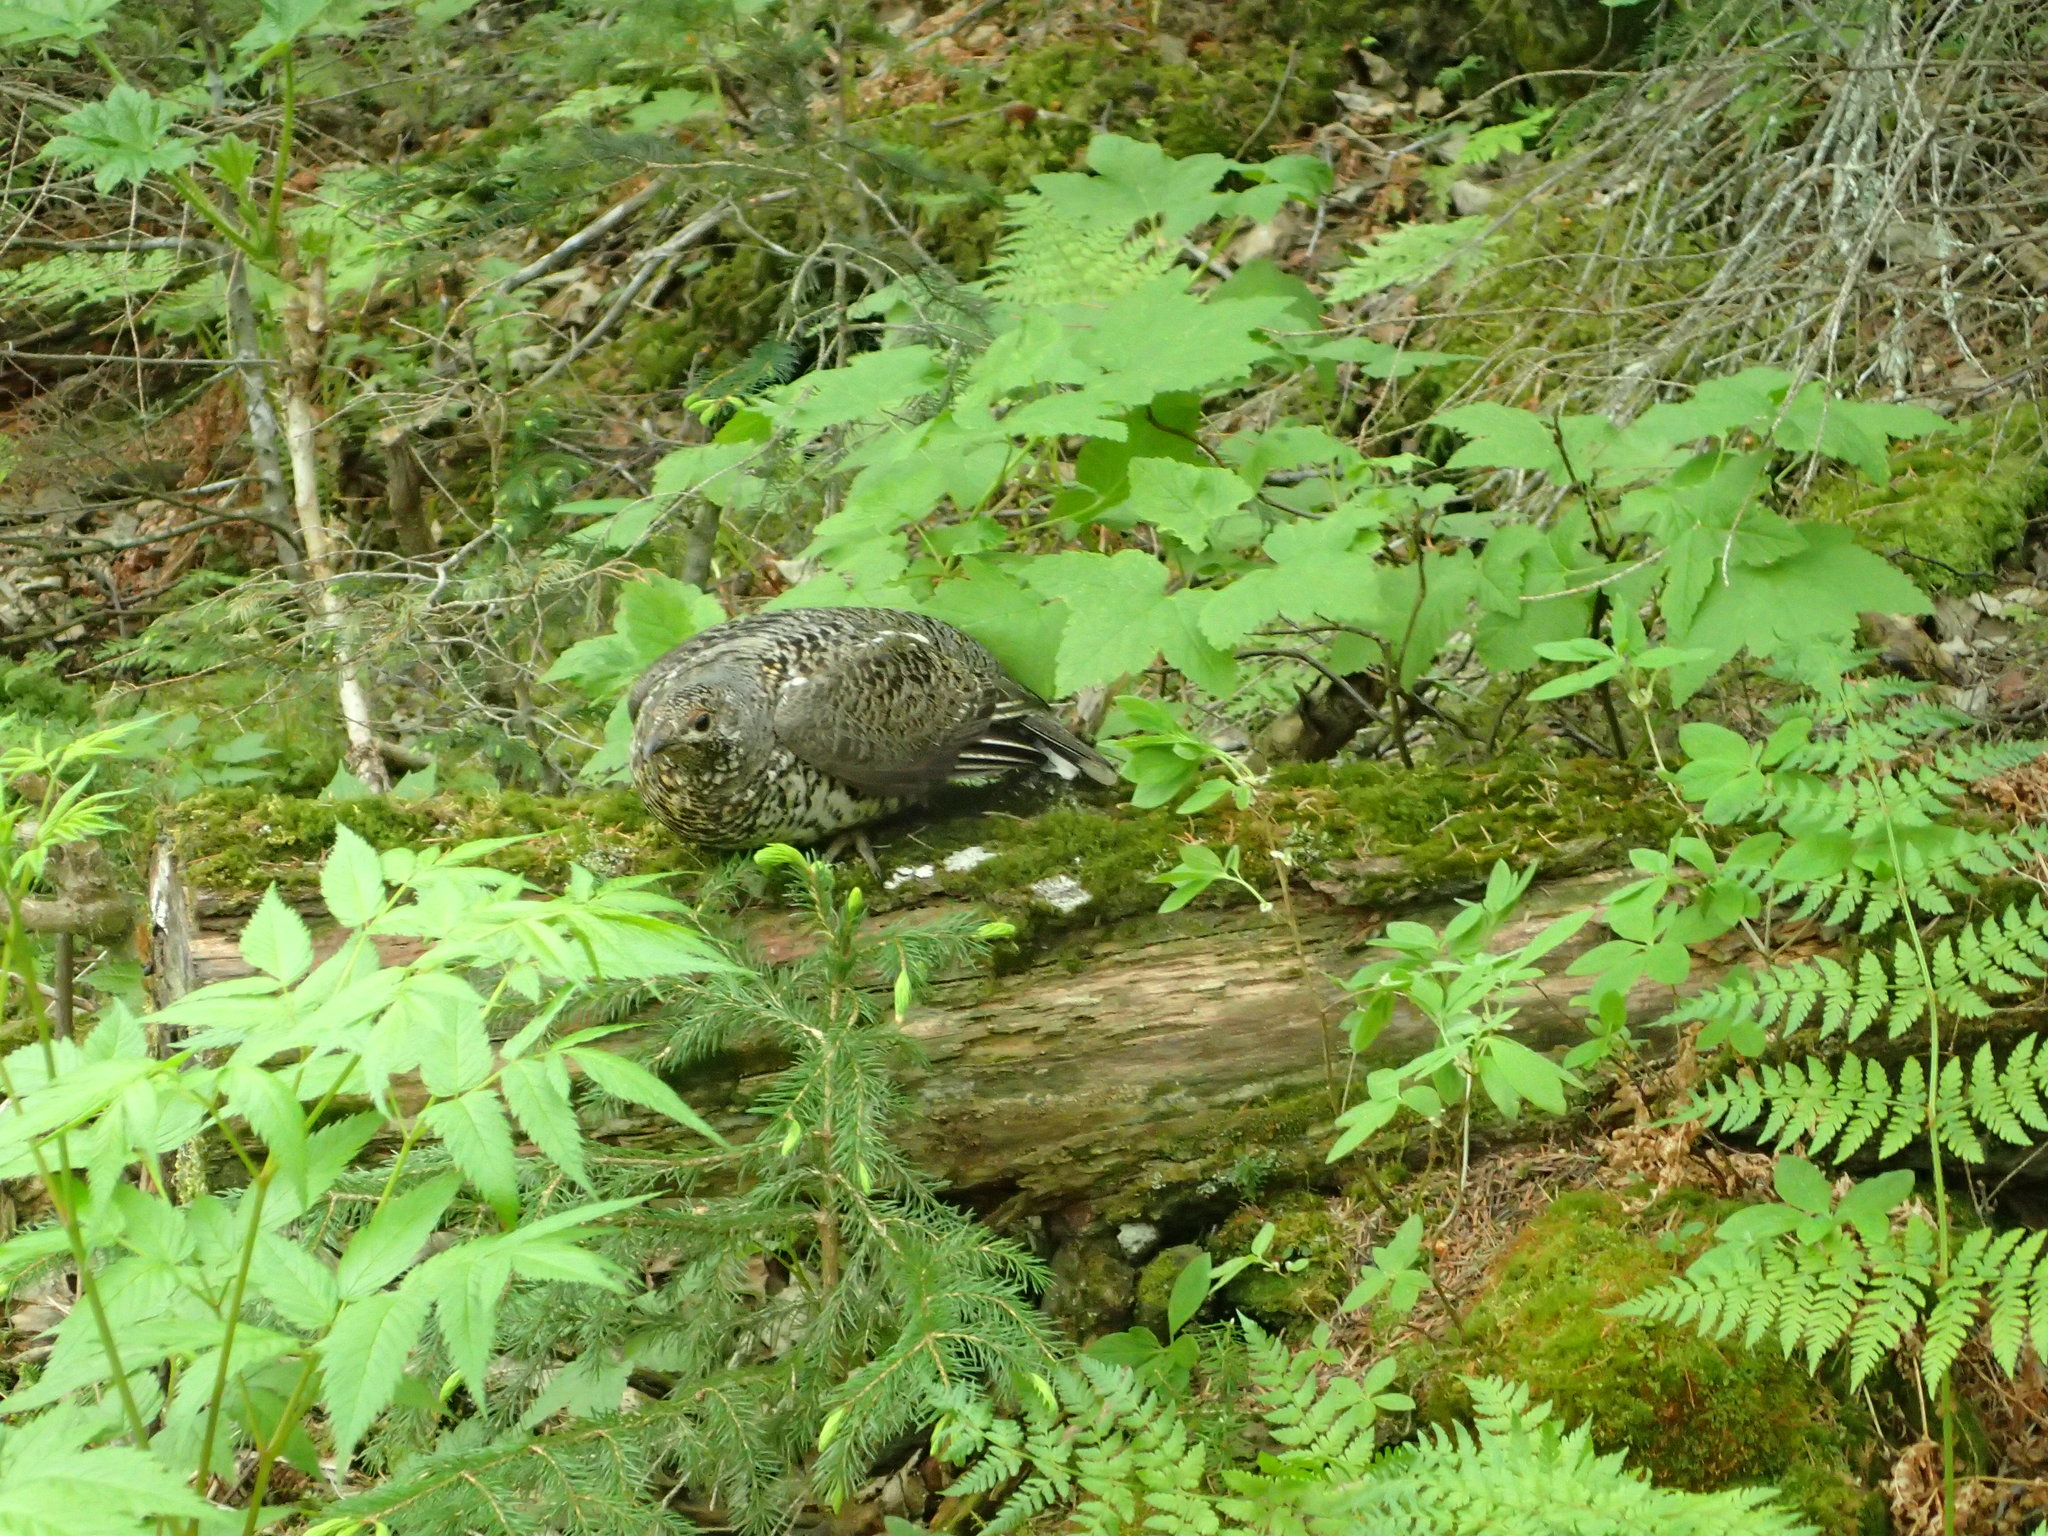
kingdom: Animalia
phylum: Chordata
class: Aves
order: Galliformes
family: Phasianidae
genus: Canachites
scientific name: Canachites canadensis
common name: Spruce grouse
